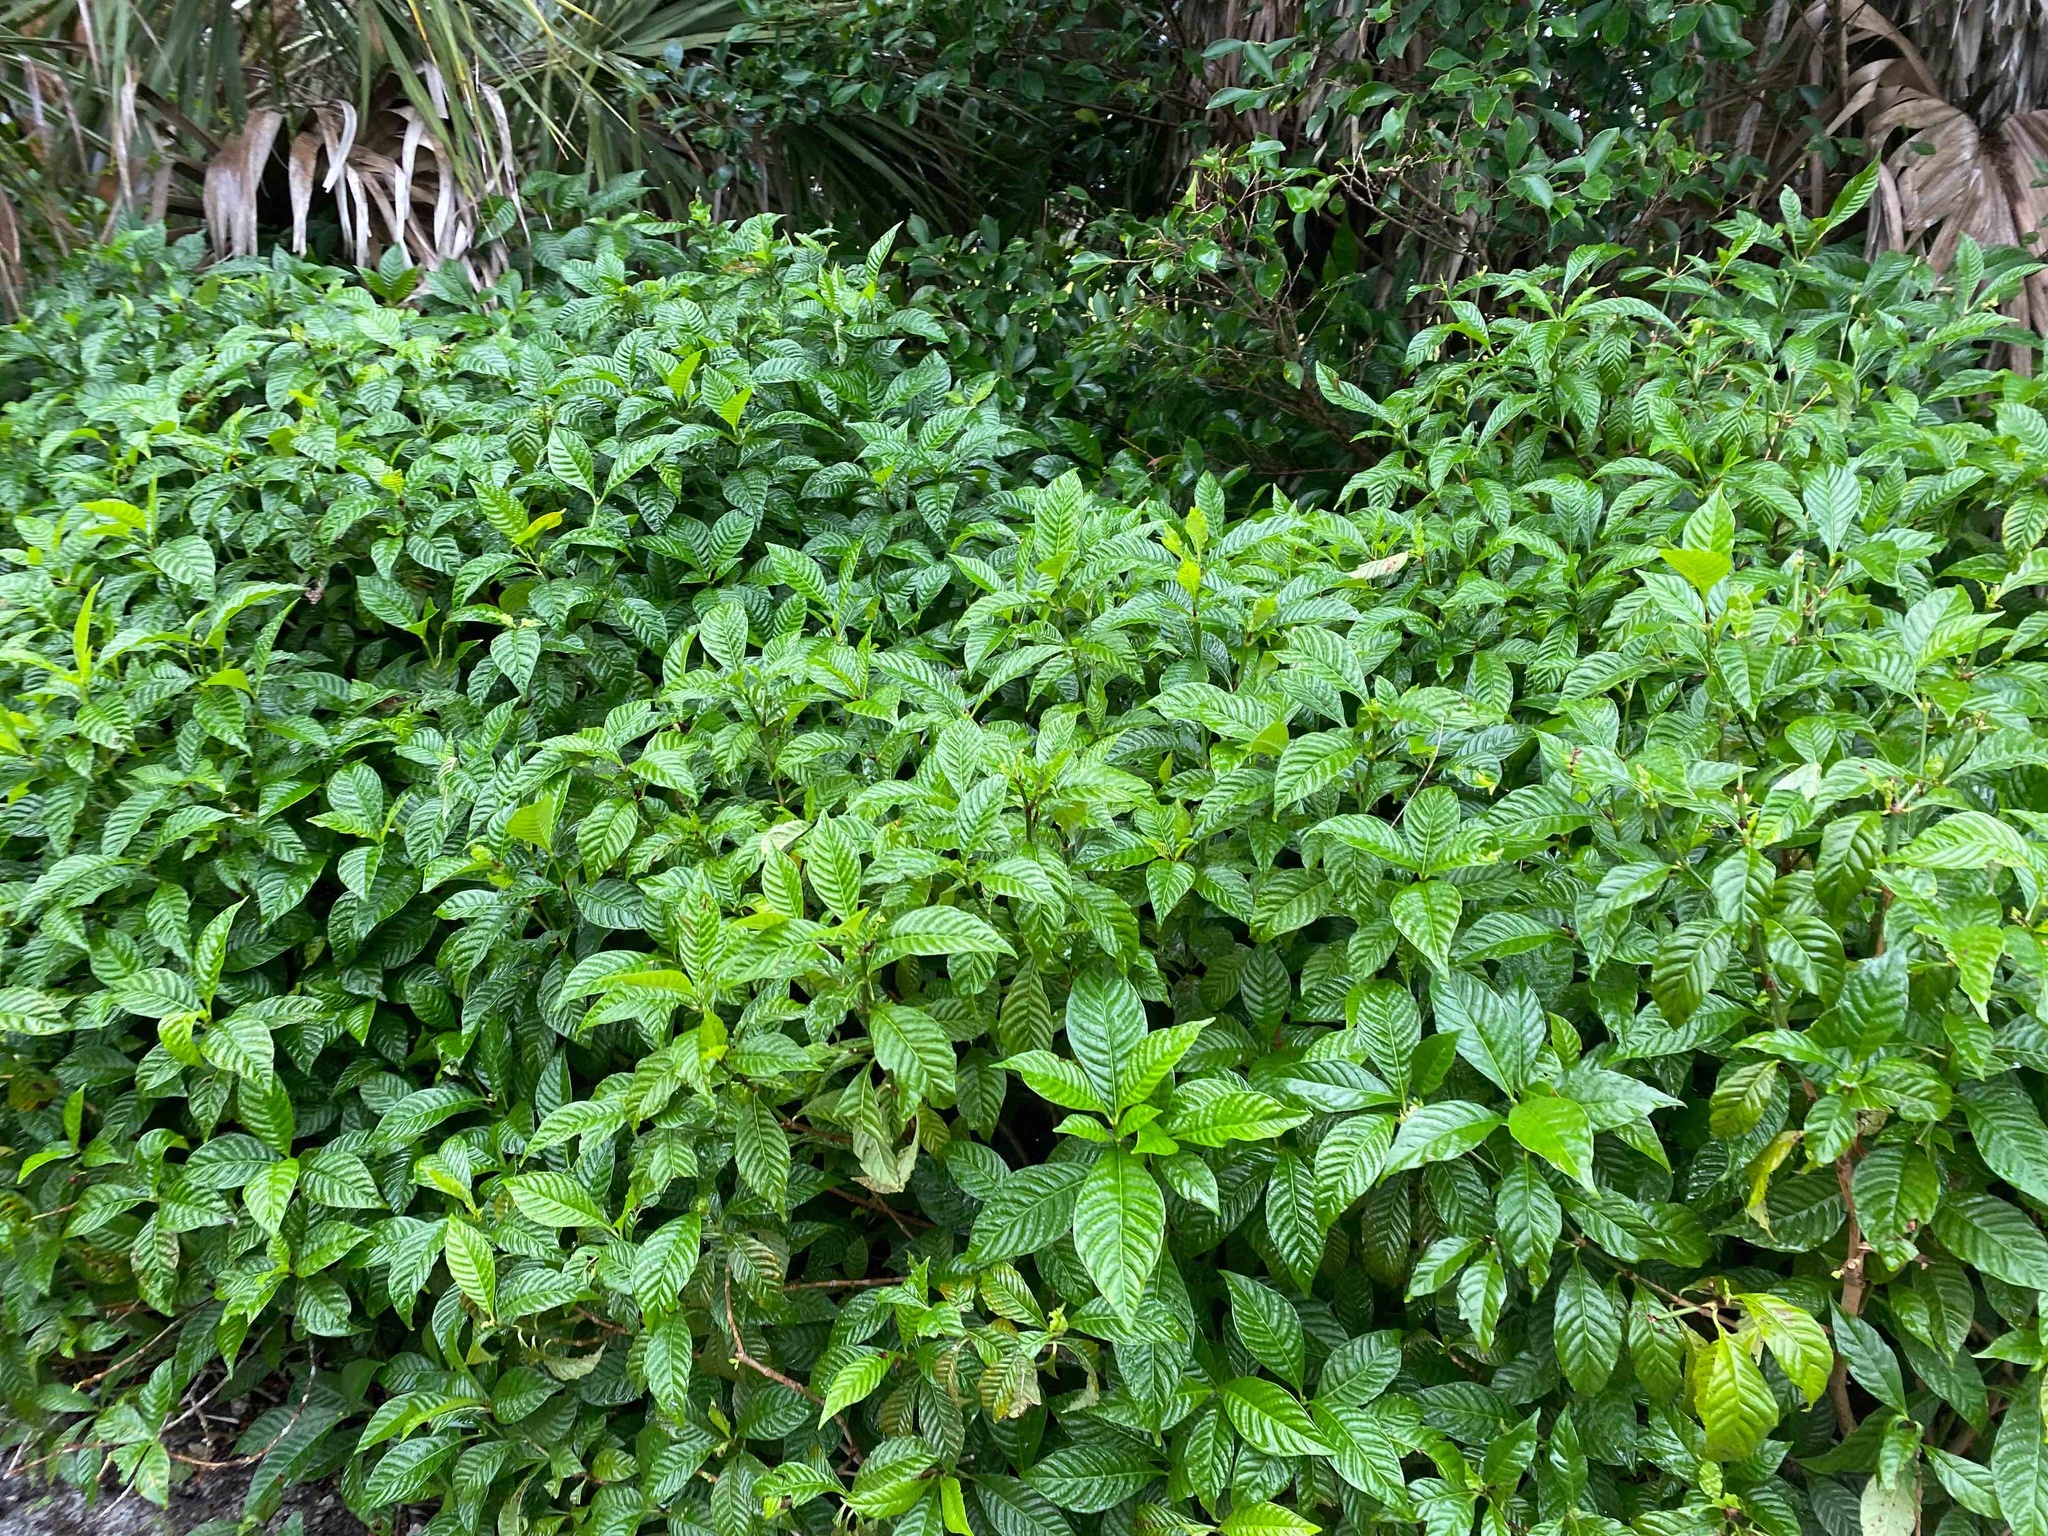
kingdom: Plantae
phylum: Tracheophyta
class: Magnoliopsida
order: Gentianales
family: Rubiaceae
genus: Psychotria
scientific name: Psychotria nervosa
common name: Bastard cankerberry
